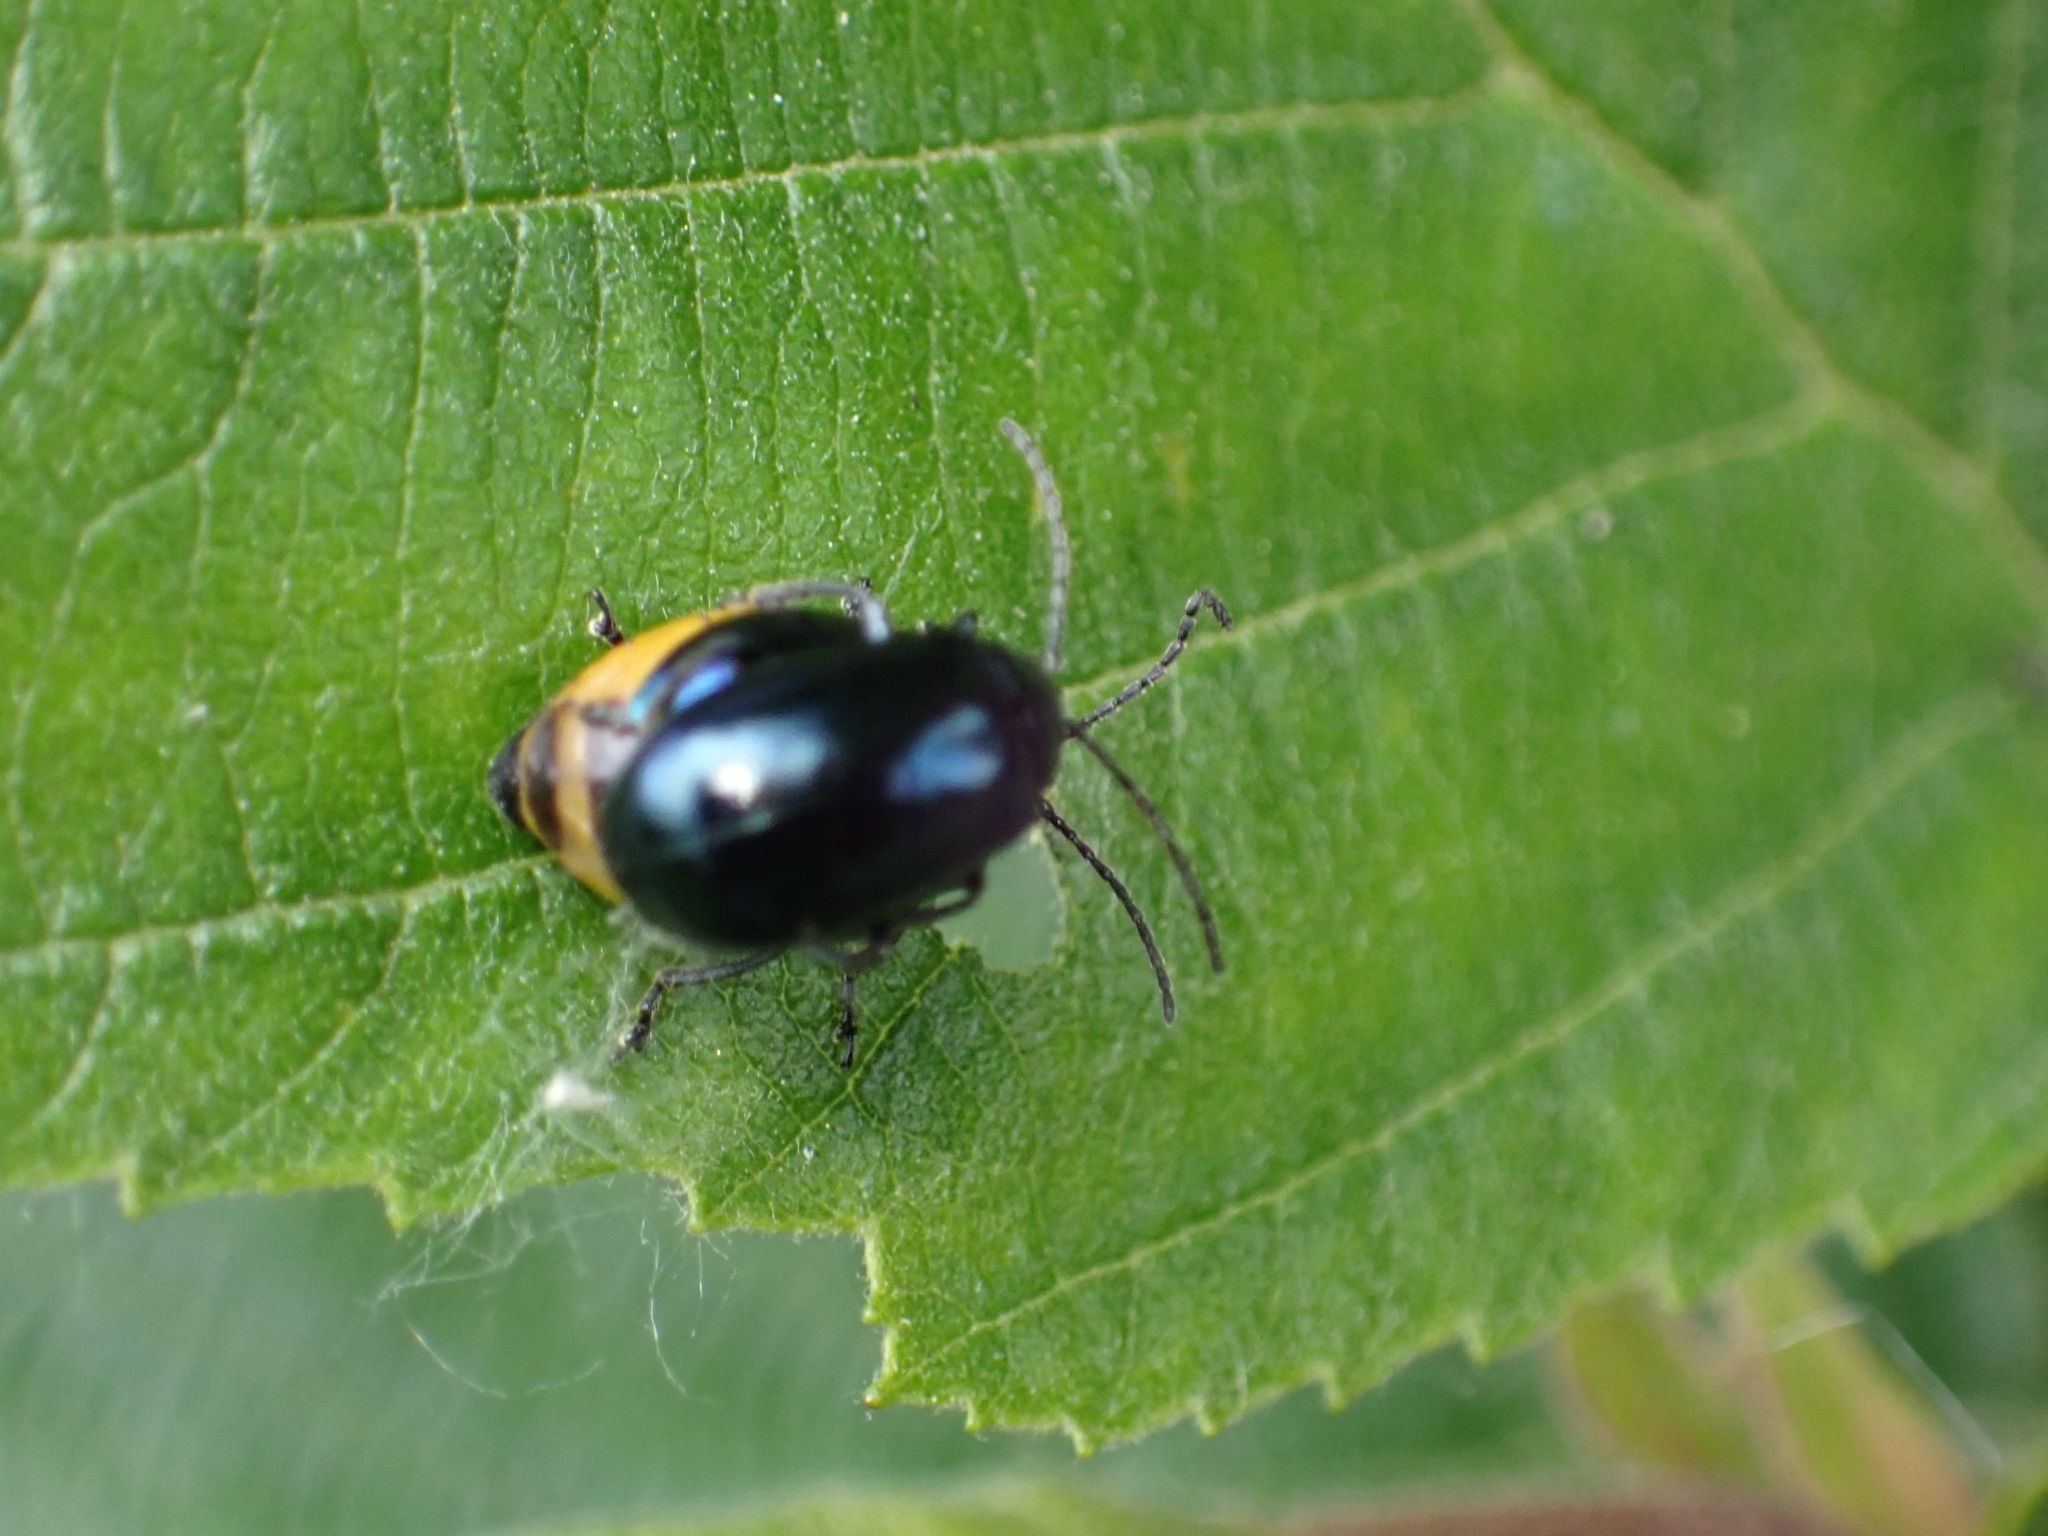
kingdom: Animalia
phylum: Arthropoda
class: Insecta
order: Coleoptera
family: Chrysomelidae
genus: Agelastica
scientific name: Agelastica alni
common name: Alder leaf beetle
